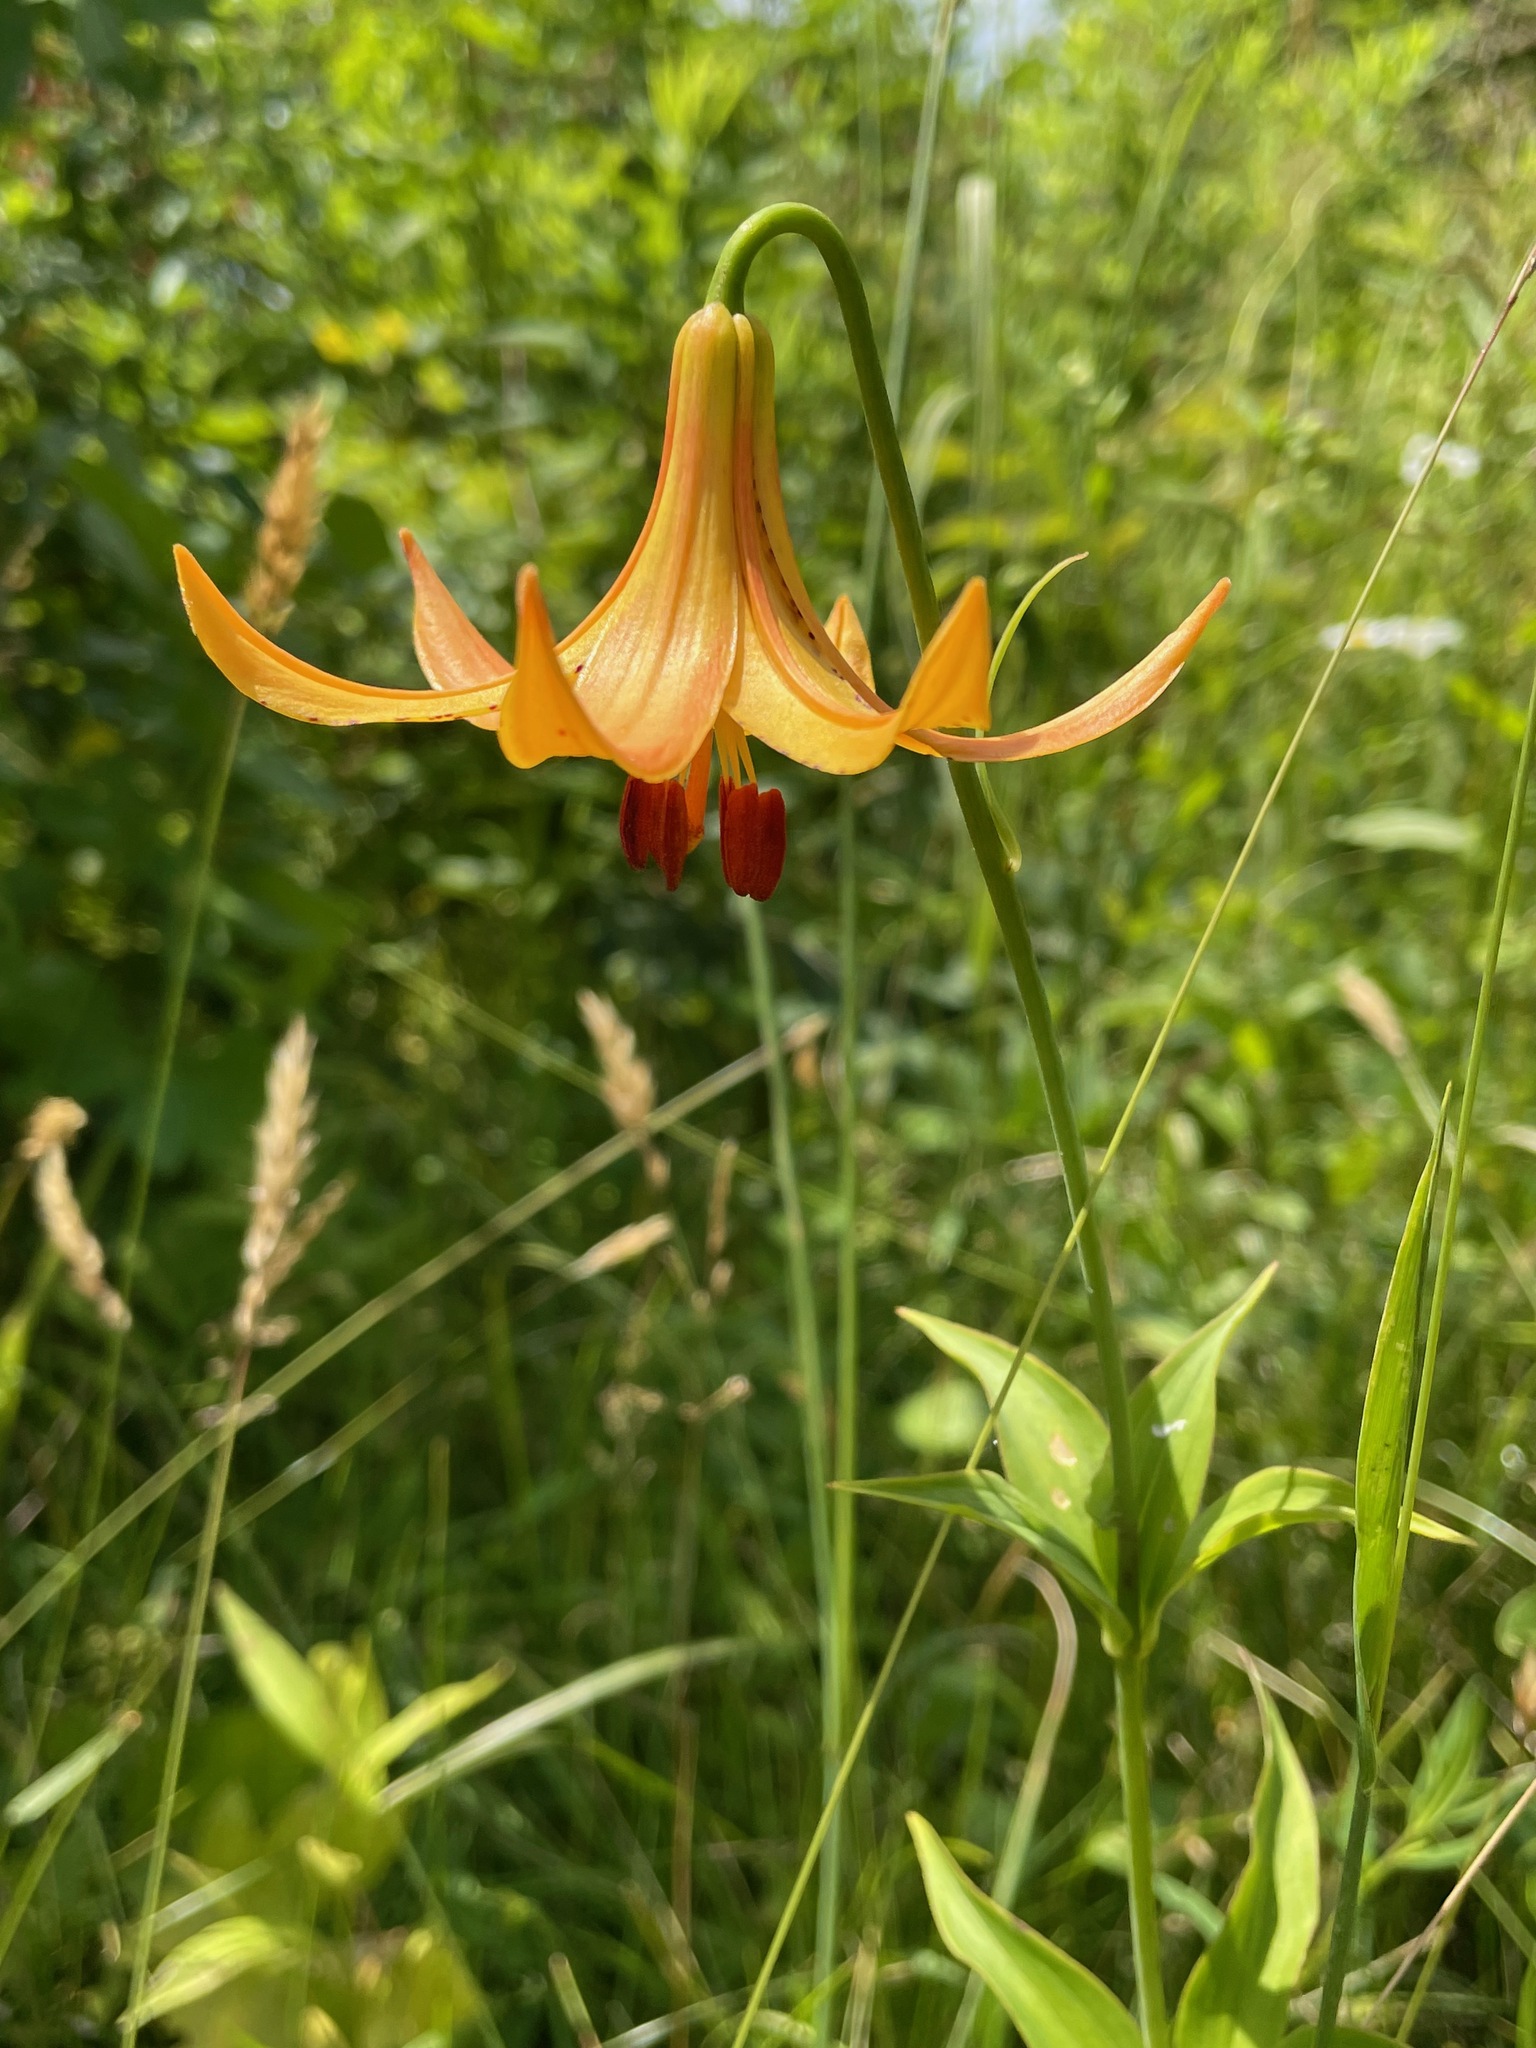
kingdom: Plantae
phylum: Tracheophyta
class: Liliopsida
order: Liliales
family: Liliaceae
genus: Lilium
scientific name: Lilium canadense
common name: Canada lily
